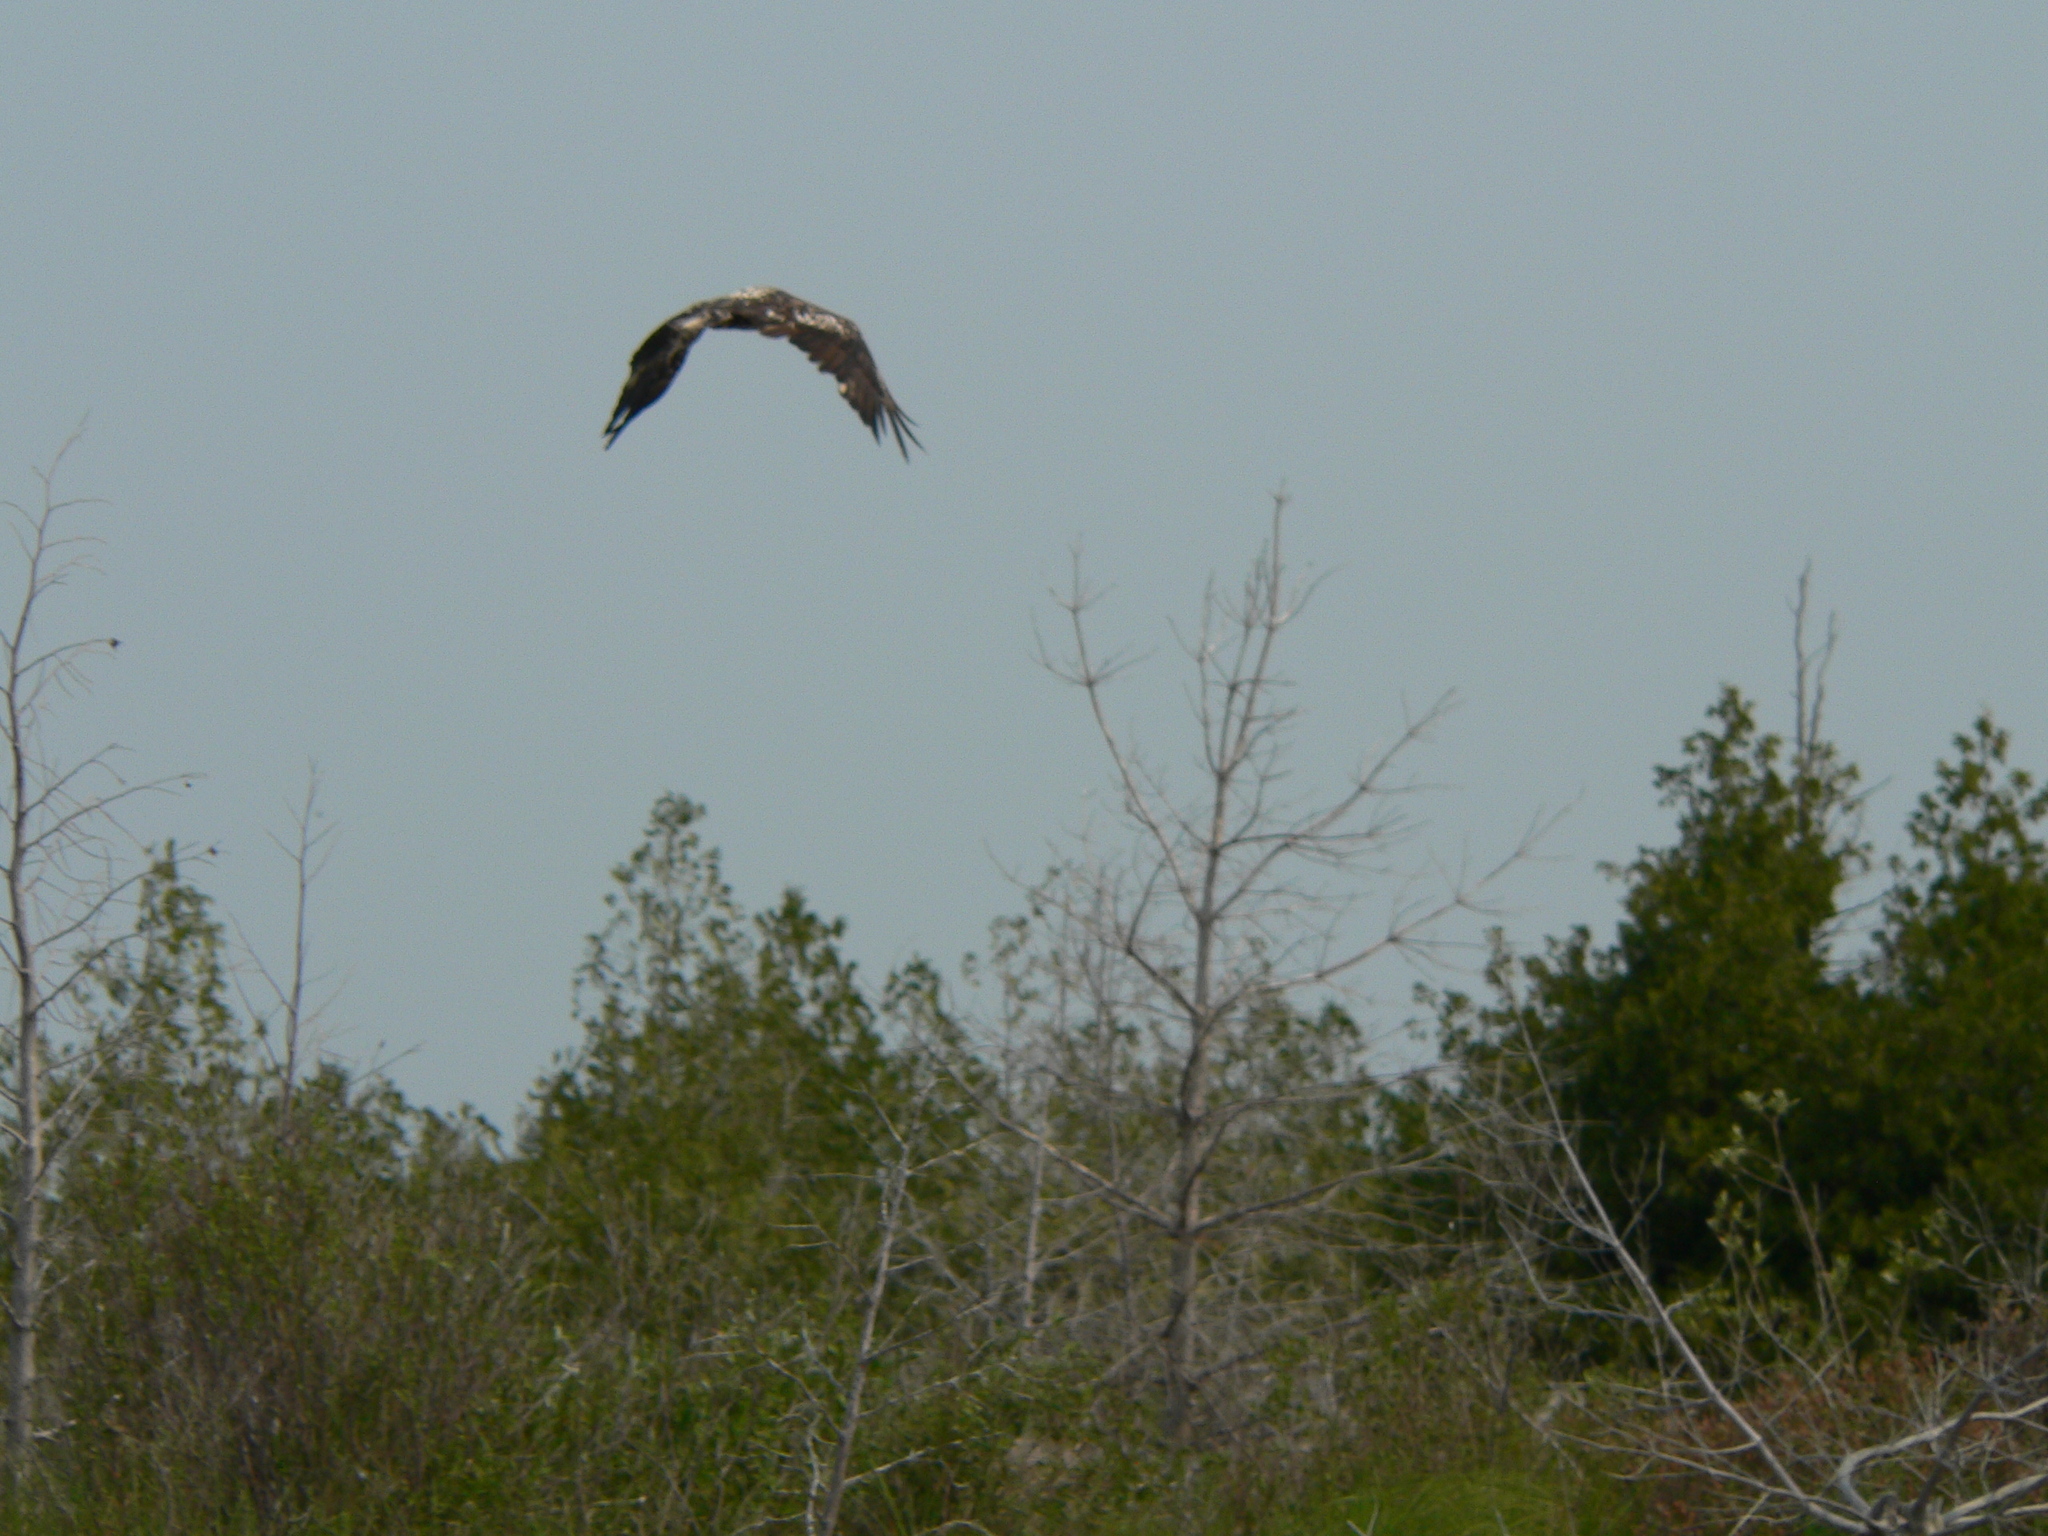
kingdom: Animalia
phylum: Chordata
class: Aves
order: Accipitriformes
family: Accipitridae
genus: Haliaeetus
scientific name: Haliaeetus leucocephalus
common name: Bald eagle
